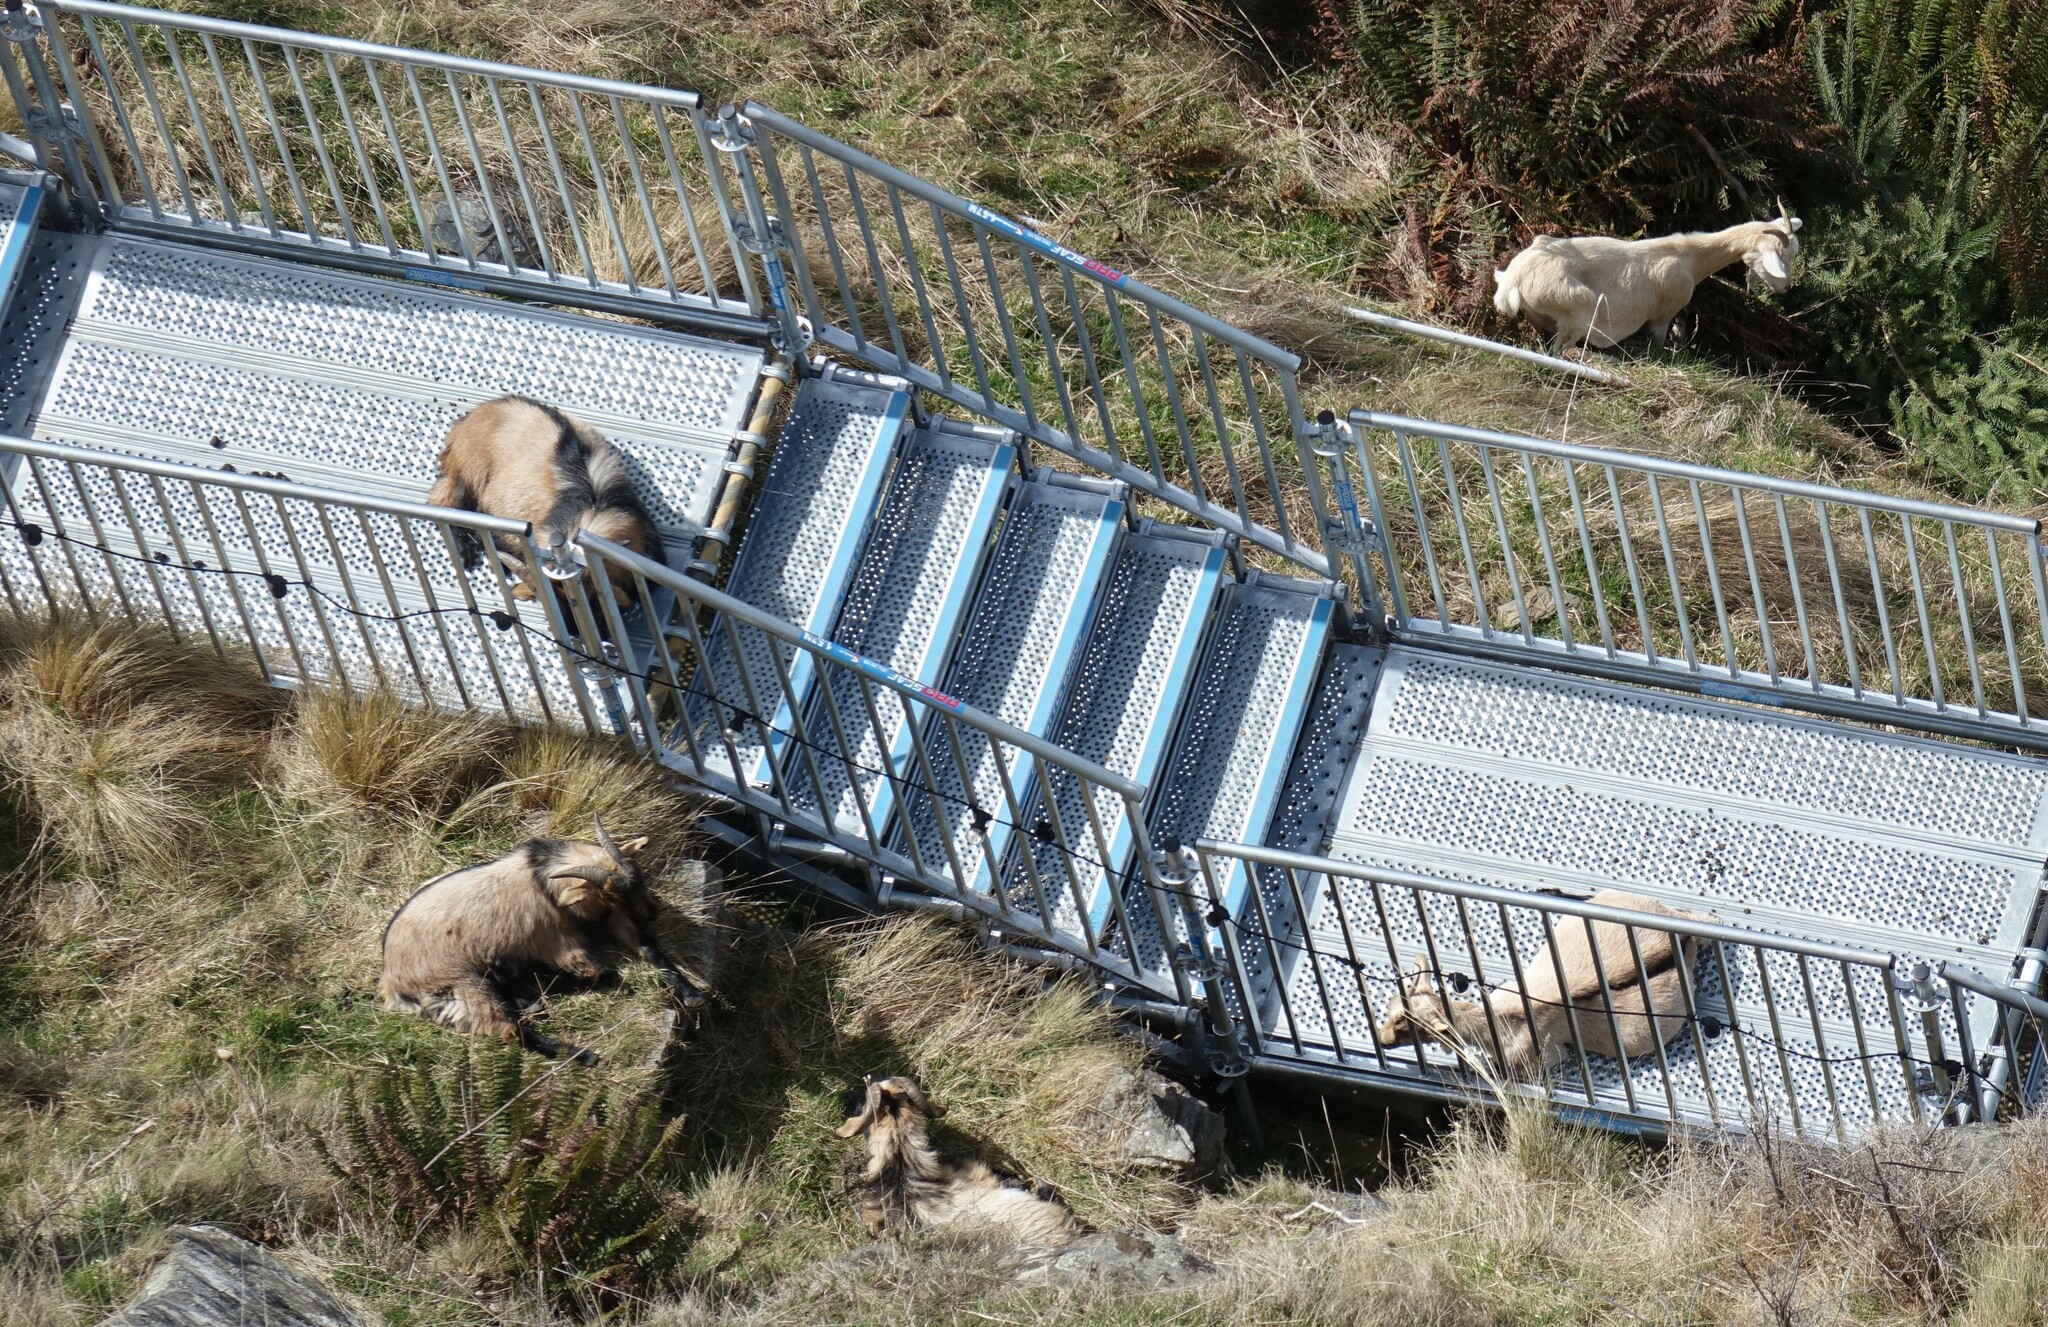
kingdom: Animalia
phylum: Chordata
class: Mammalia
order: Artiodactyla
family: Bovidae
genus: Capra
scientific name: Capra hircus
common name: Domestic goat
